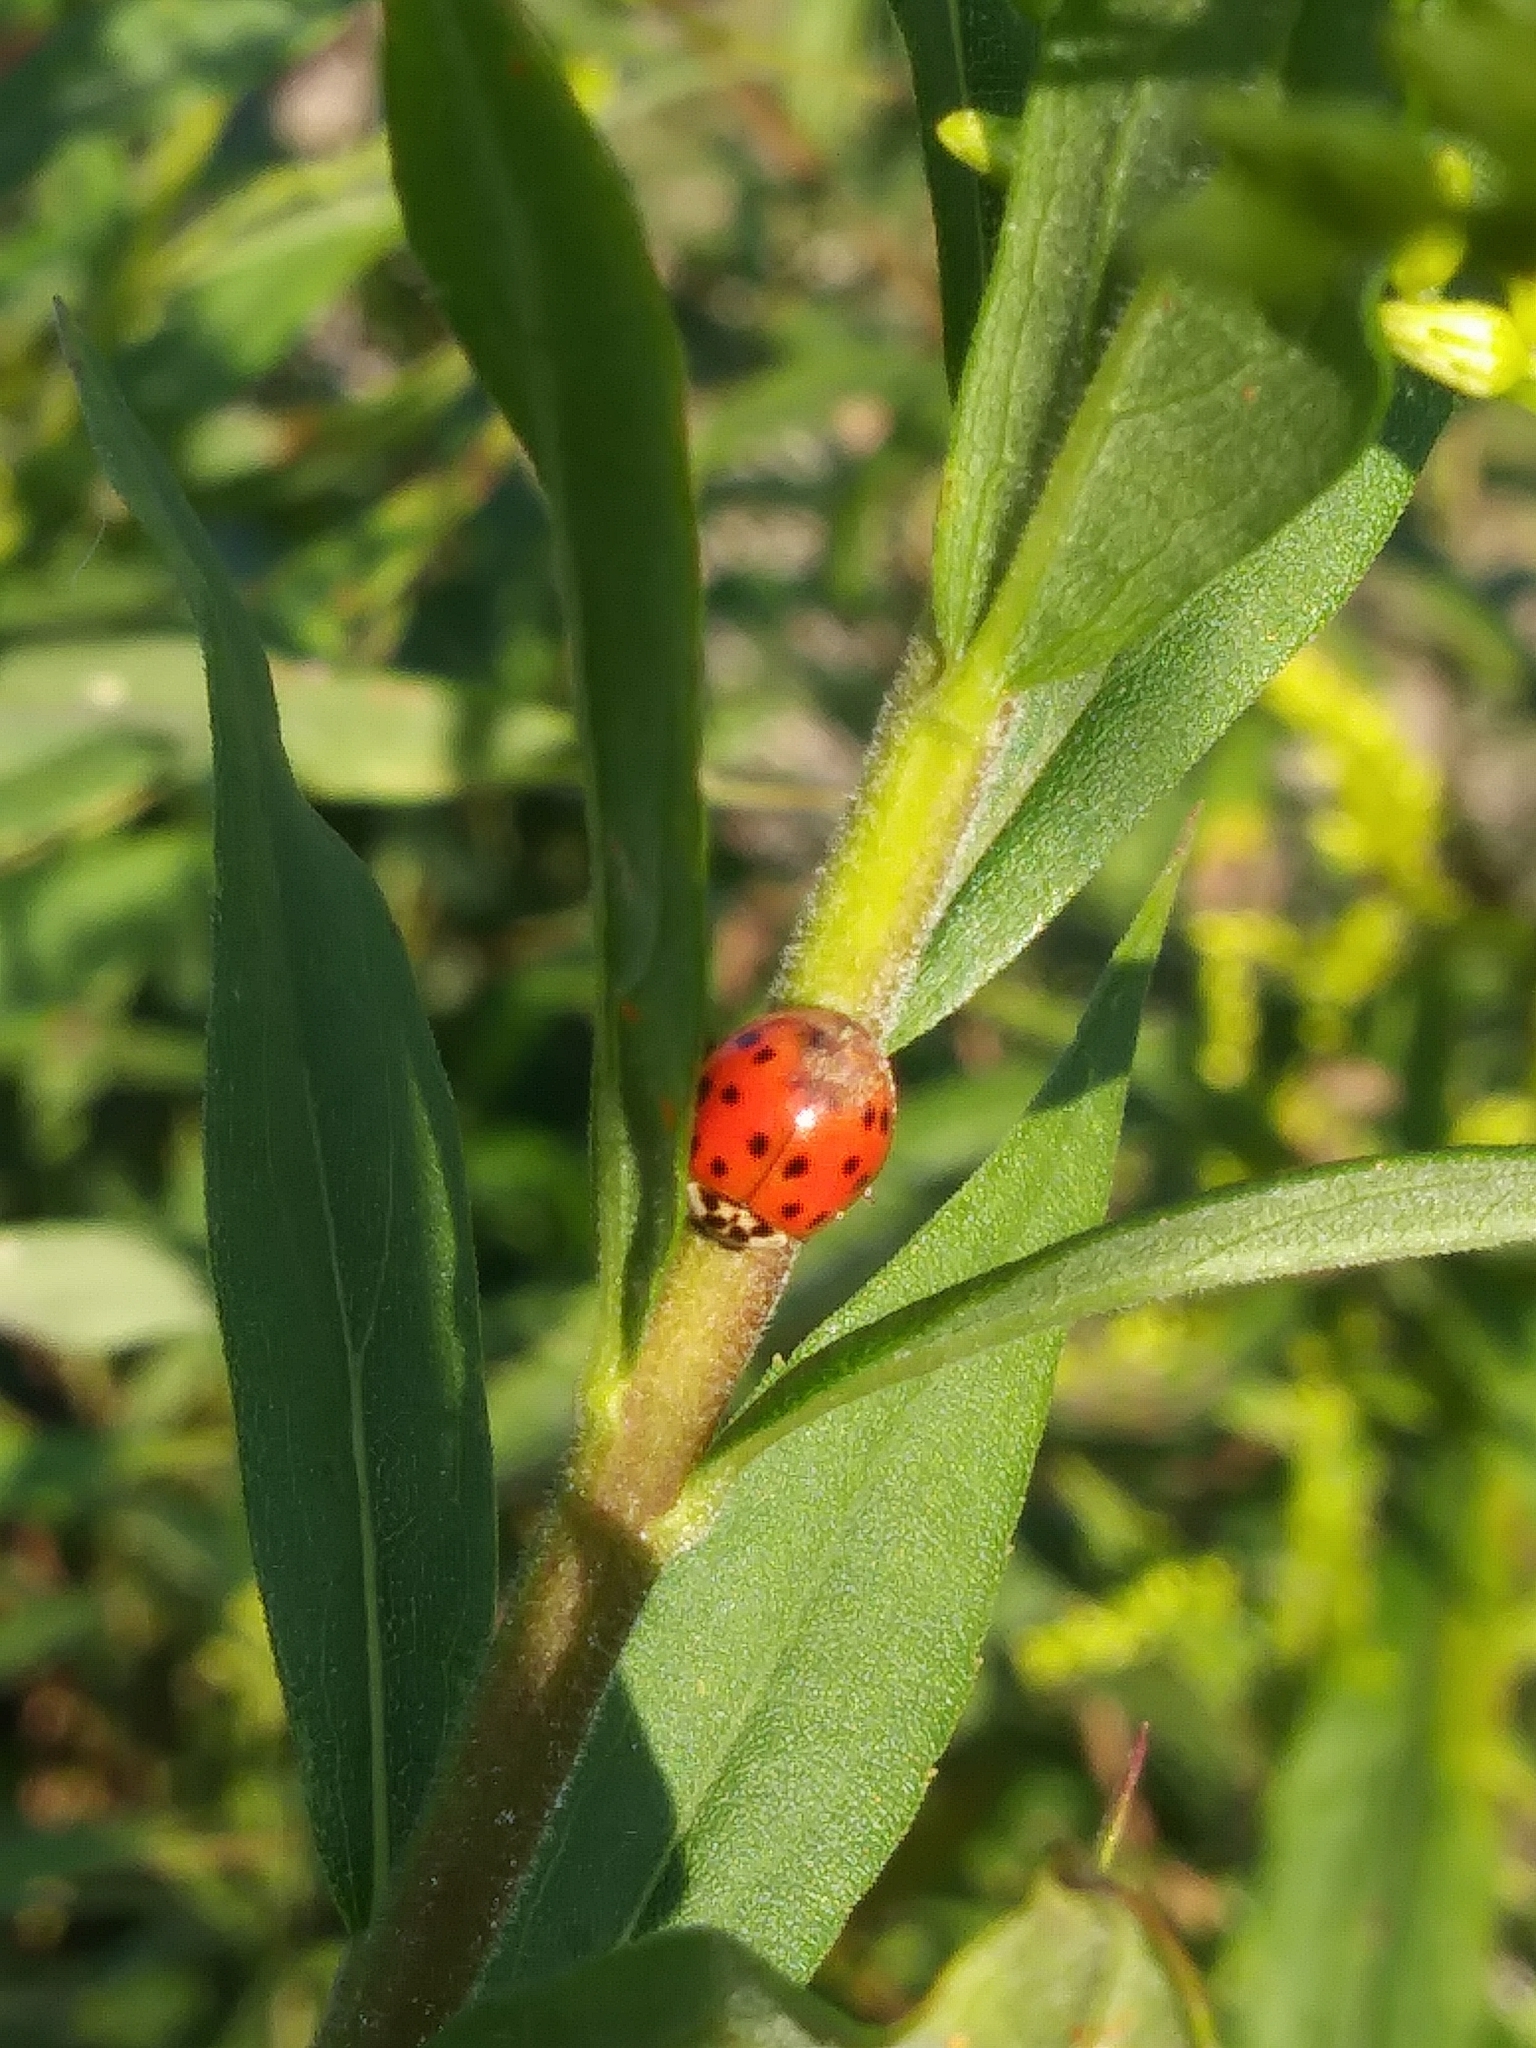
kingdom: Animalia
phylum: Arthropoda
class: Insecta
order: Coleoptera
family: Coccinellidae
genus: Harmonia
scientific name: Harmonia axyridis
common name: Harlequin ladybird
